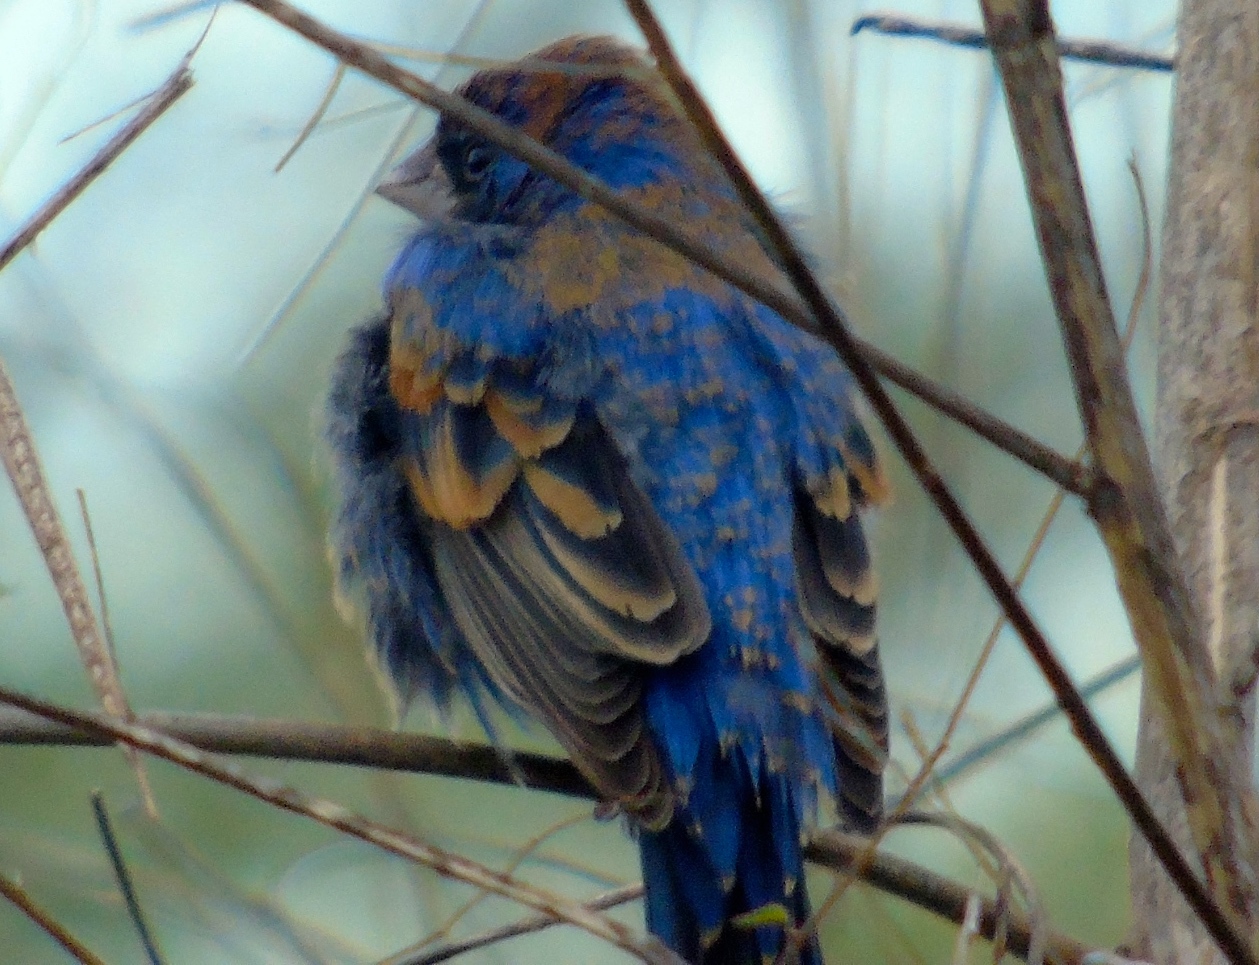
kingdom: Animalia
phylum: Chordata
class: Aves
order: Passeriformes
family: Cardinalidae
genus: Passerina
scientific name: Passerina caerulea
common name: Blue grosbeak
